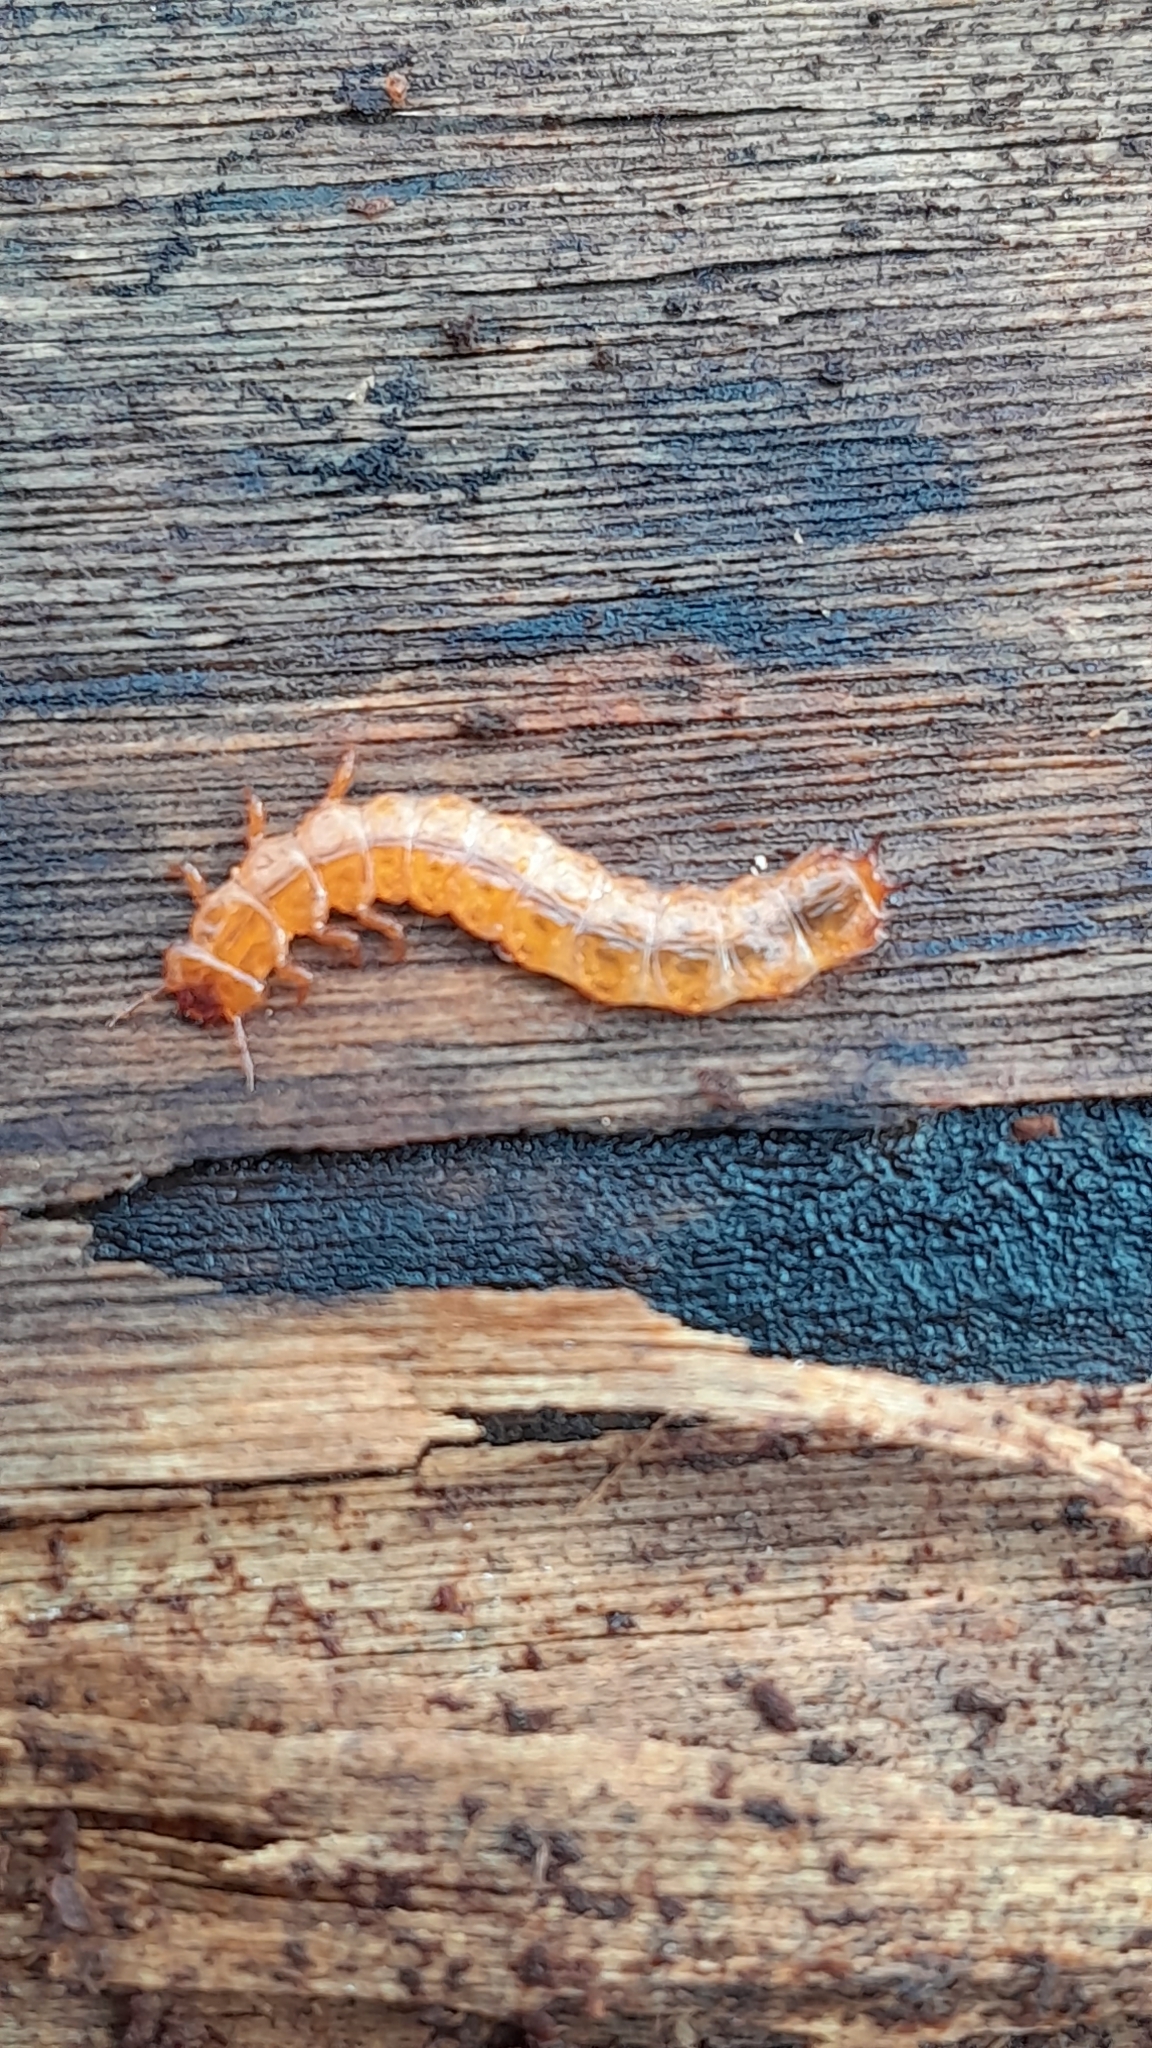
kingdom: Animalia
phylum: Arthropoda
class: Insecta
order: Coleoptera
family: Cucujidae
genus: Cucujus
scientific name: Cucujus cinnaberinus
